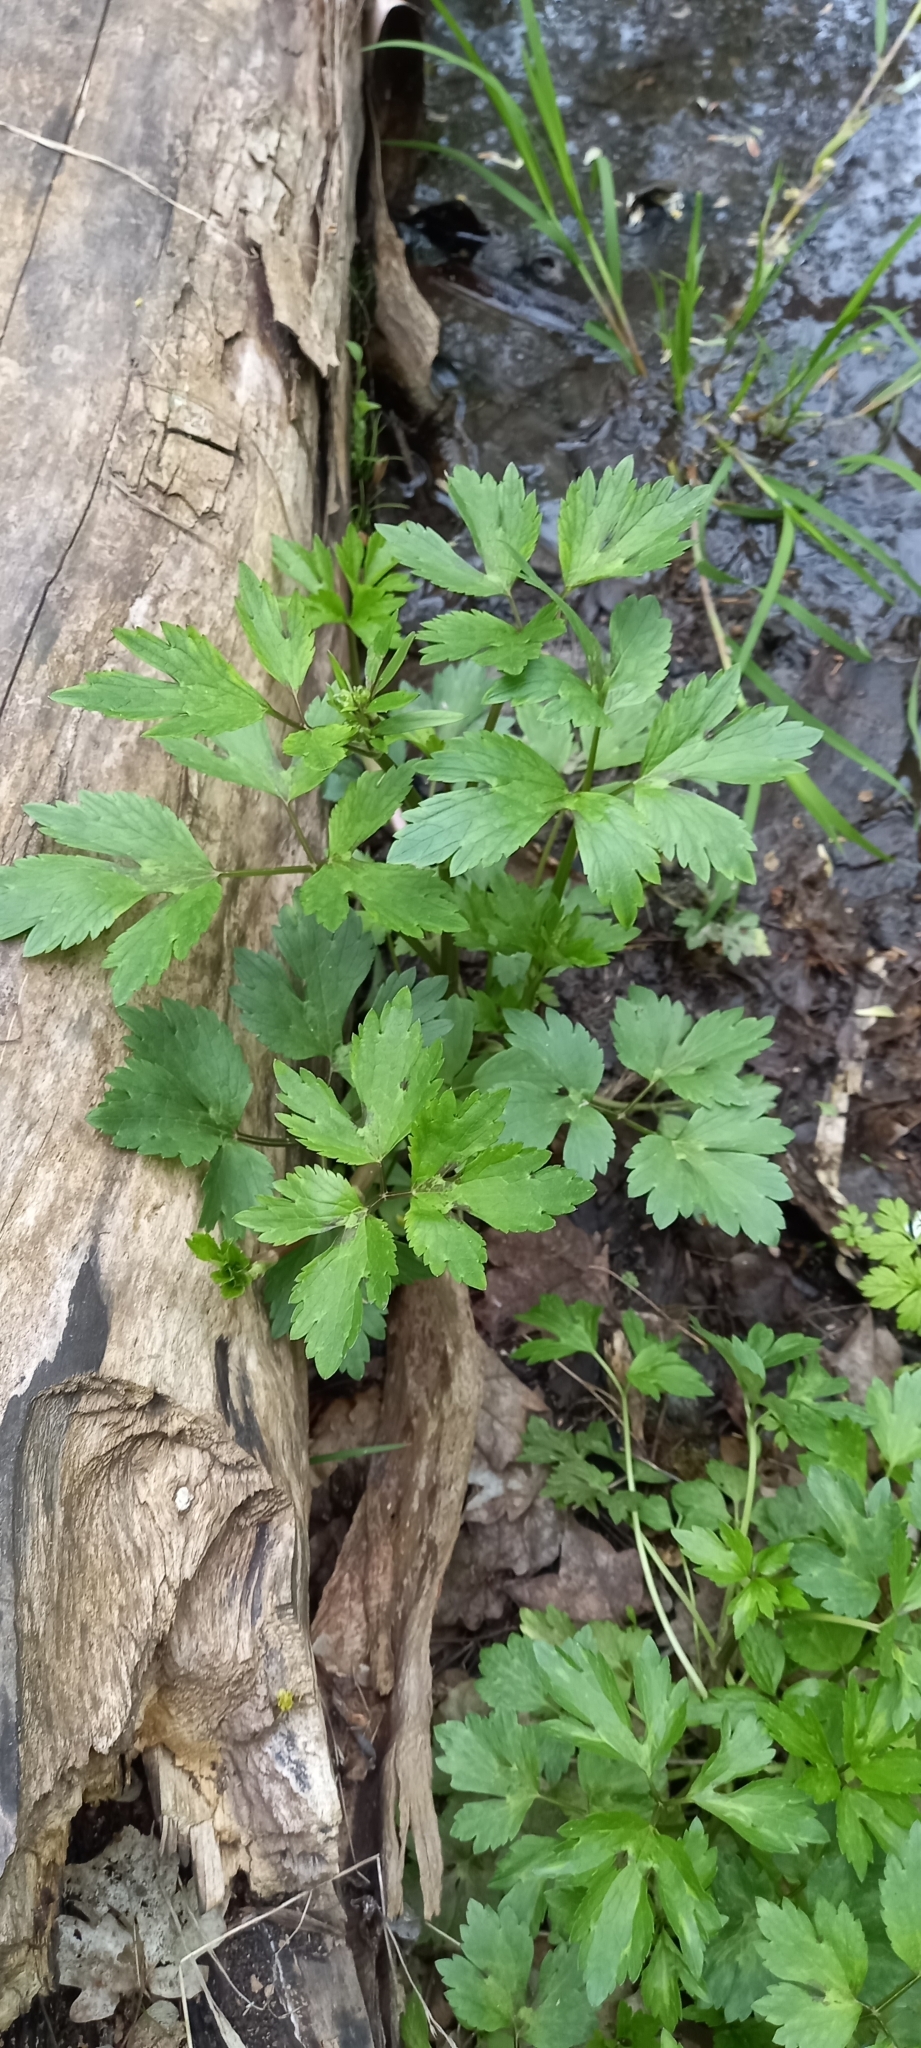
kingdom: Plantae
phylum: Tracheophyta
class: Magnoliopsida
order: Ranunculales
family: Ranunculaceae
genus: Ranunculus
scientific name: Ranunculus repens
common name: Creeping buttercup
